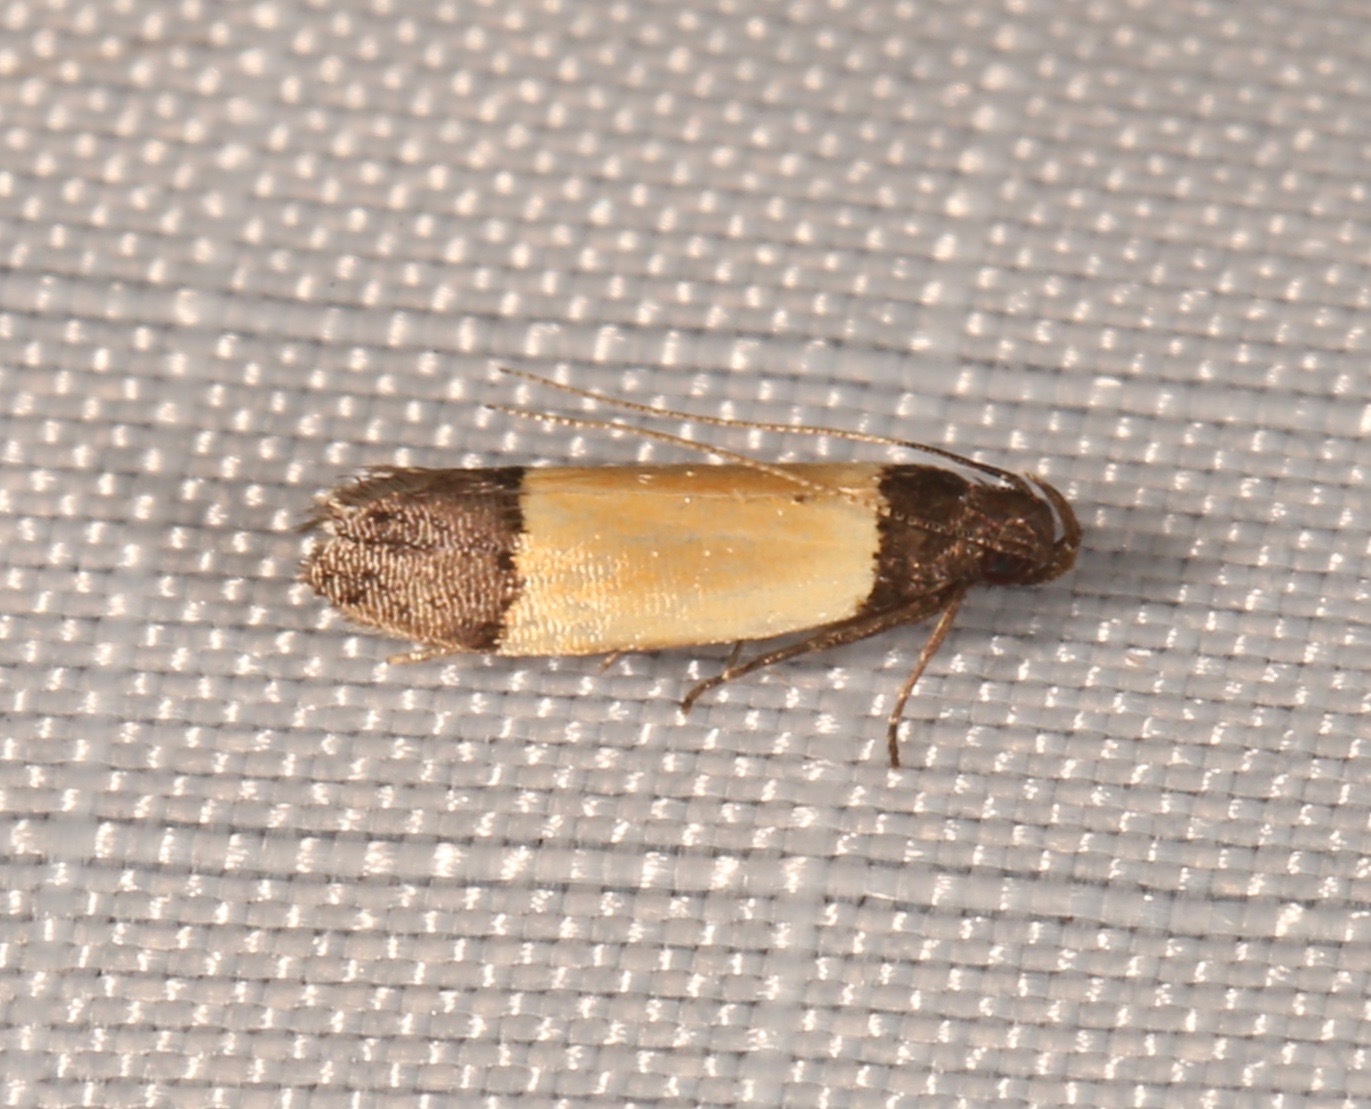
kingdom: Animalia
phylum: Arthropoda
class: Insecta
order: Lepidoptera
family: Gelechiidae
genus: Anacampsis
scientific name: Anacampsis coverdalella
